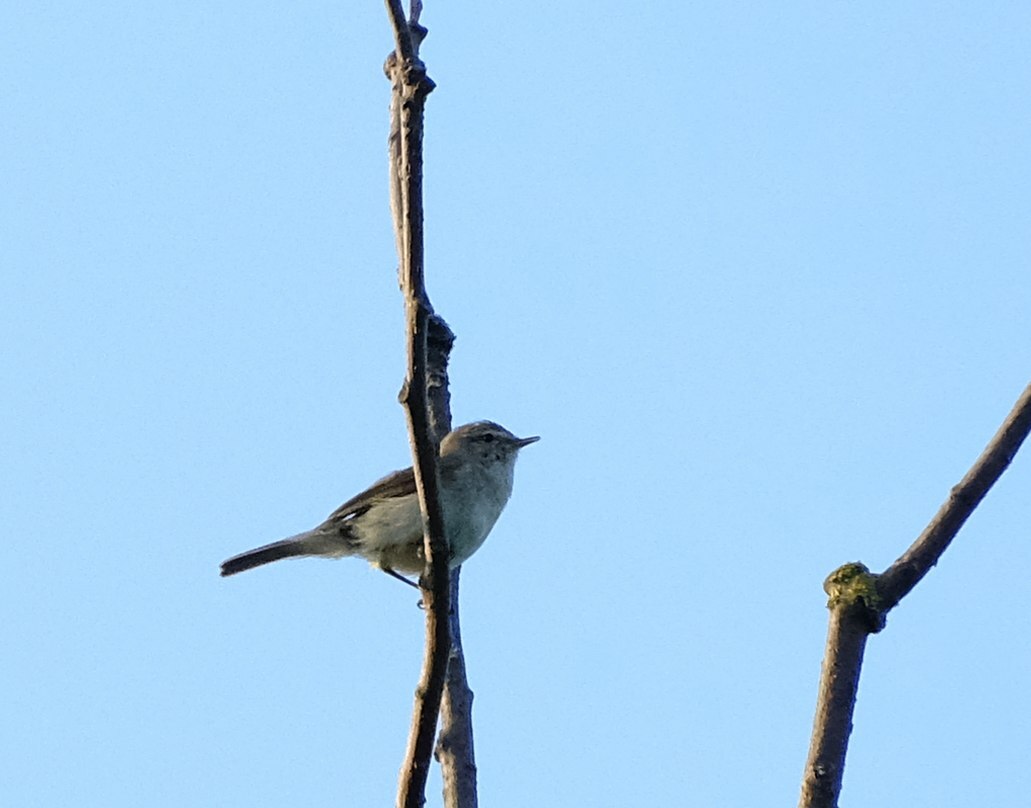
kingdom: Animalia
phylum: Chordata
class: Aves
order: Passeriformes
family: Phylloscopidae
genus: Phylloscopus
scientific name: Phylloscopus collybita
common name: Common chiffchaff
